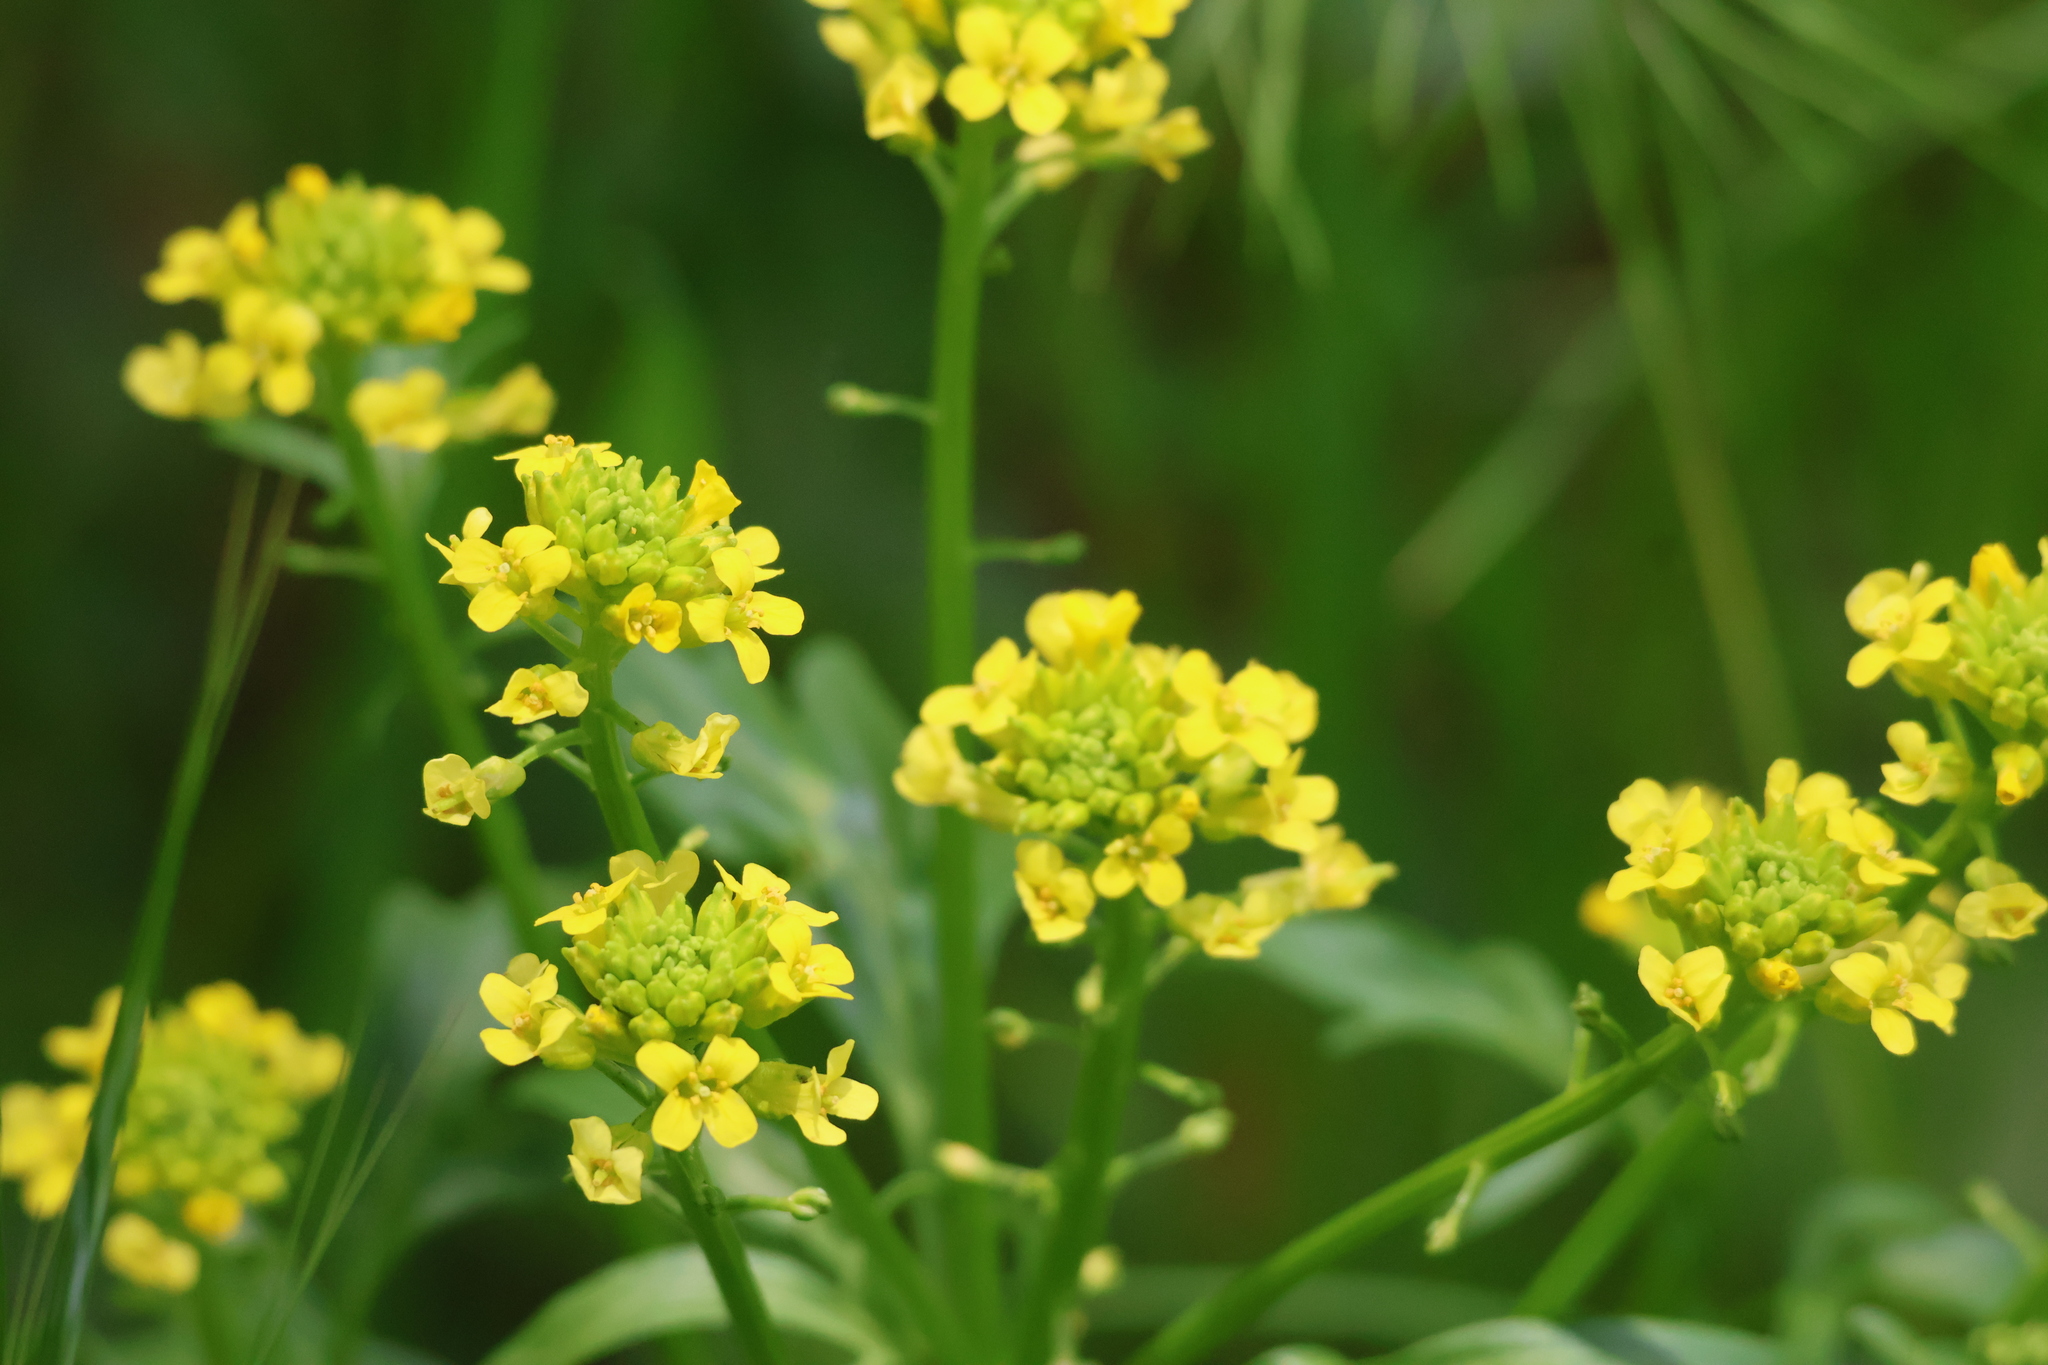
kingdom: Plantae
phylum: Tracheophyta
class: Magnoliopsida
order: Brassicales
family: Brassicaceae
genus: Barbarea
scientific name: Barbarea orthoceras
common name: American wintercress
